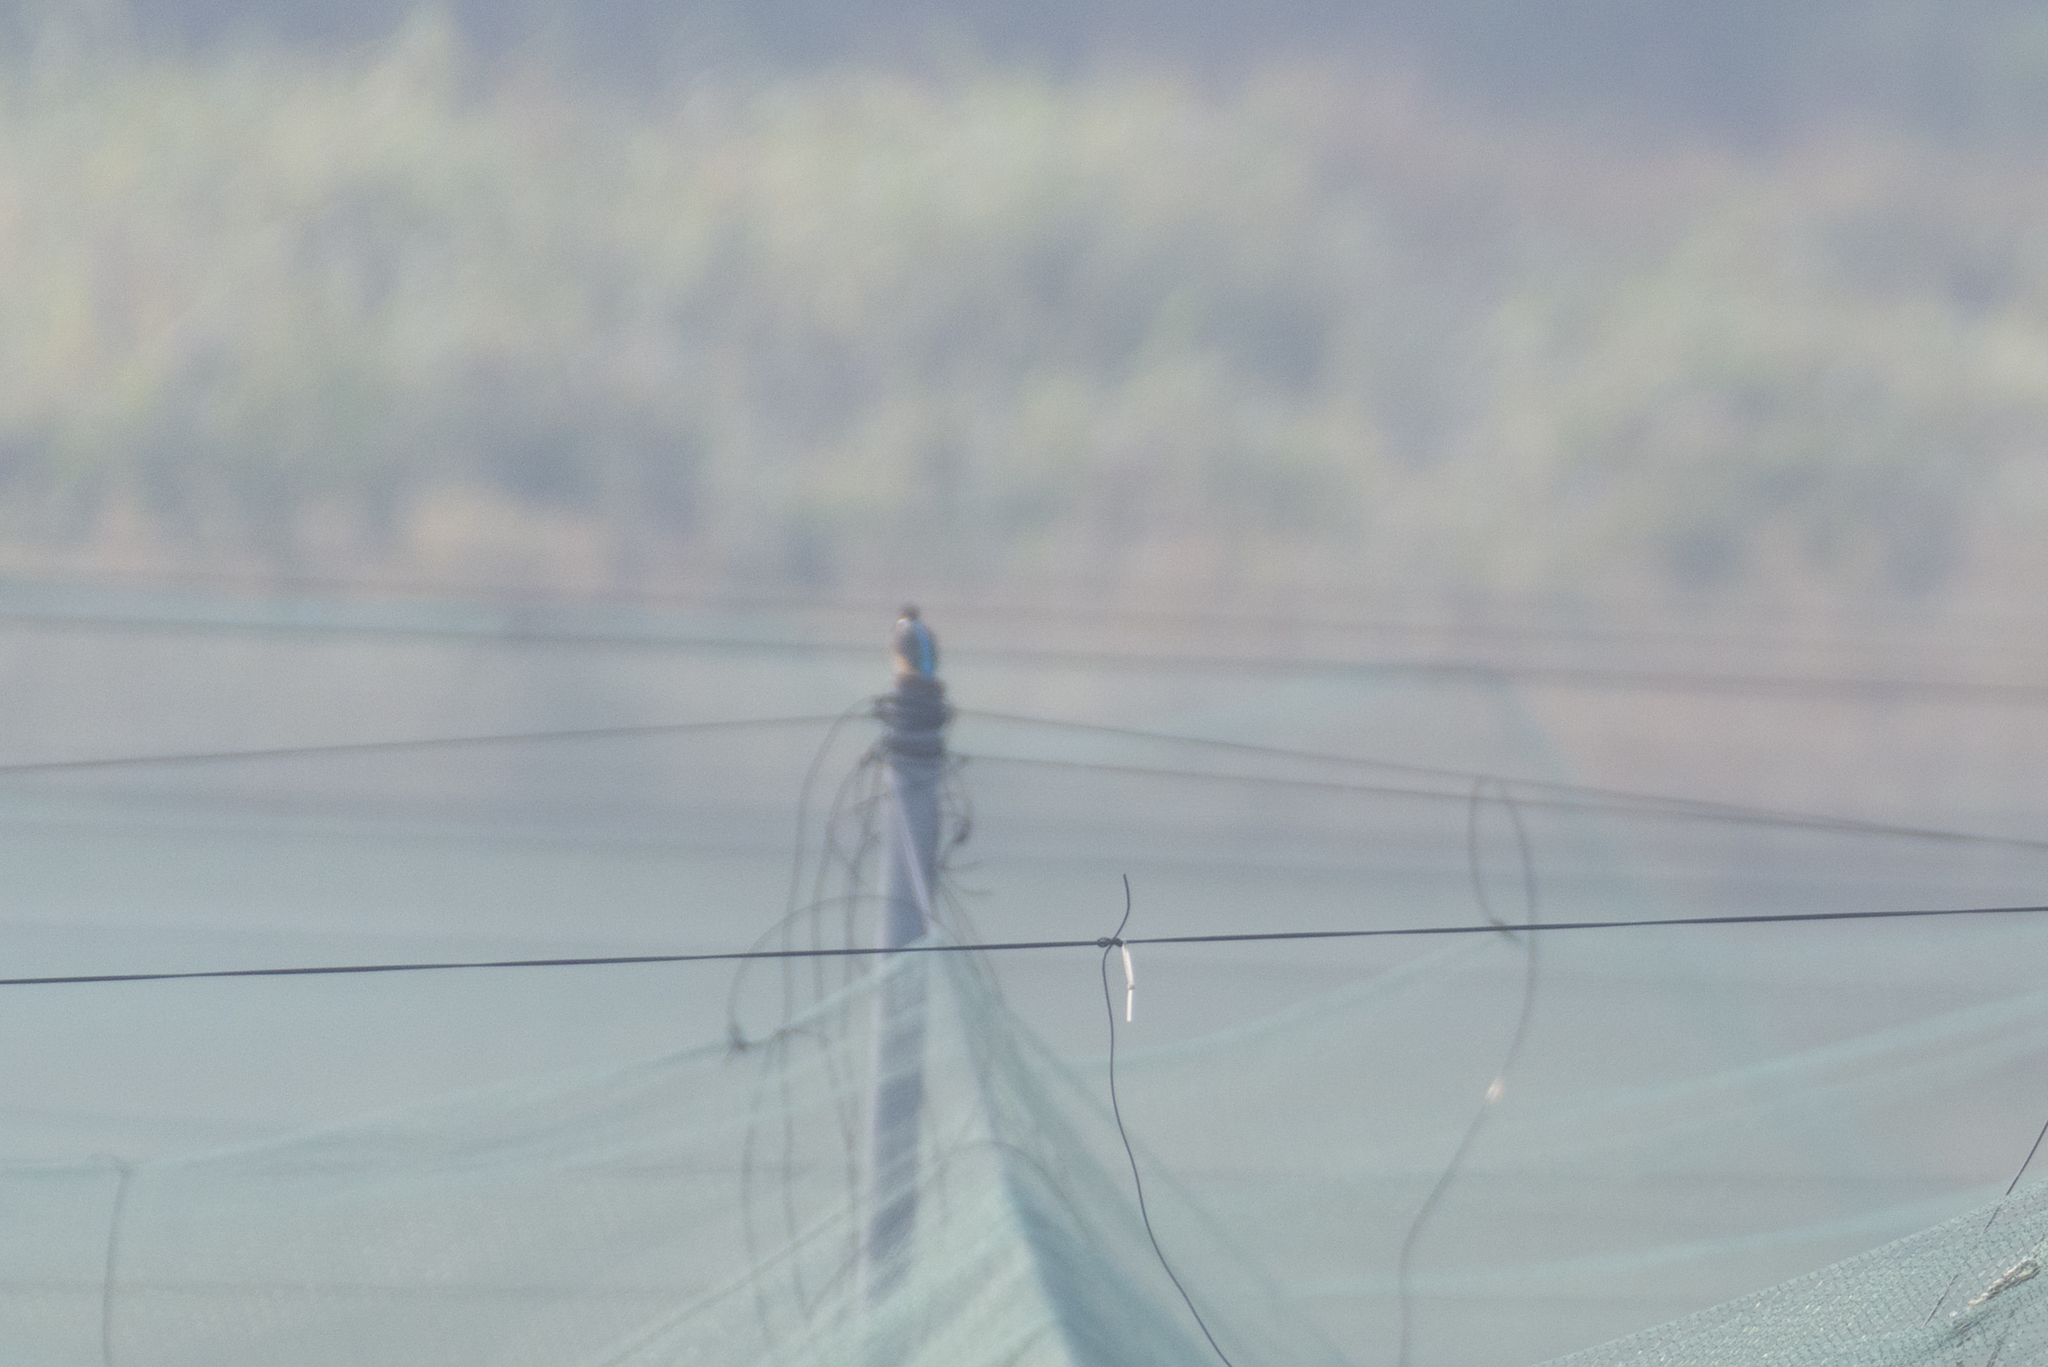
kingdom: Animalia
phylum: Chordata
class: Aves
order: Coraciiformes
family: Alcedinidae
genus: Alcedo
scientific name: Alcedo atthis
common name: Common kingfisher
